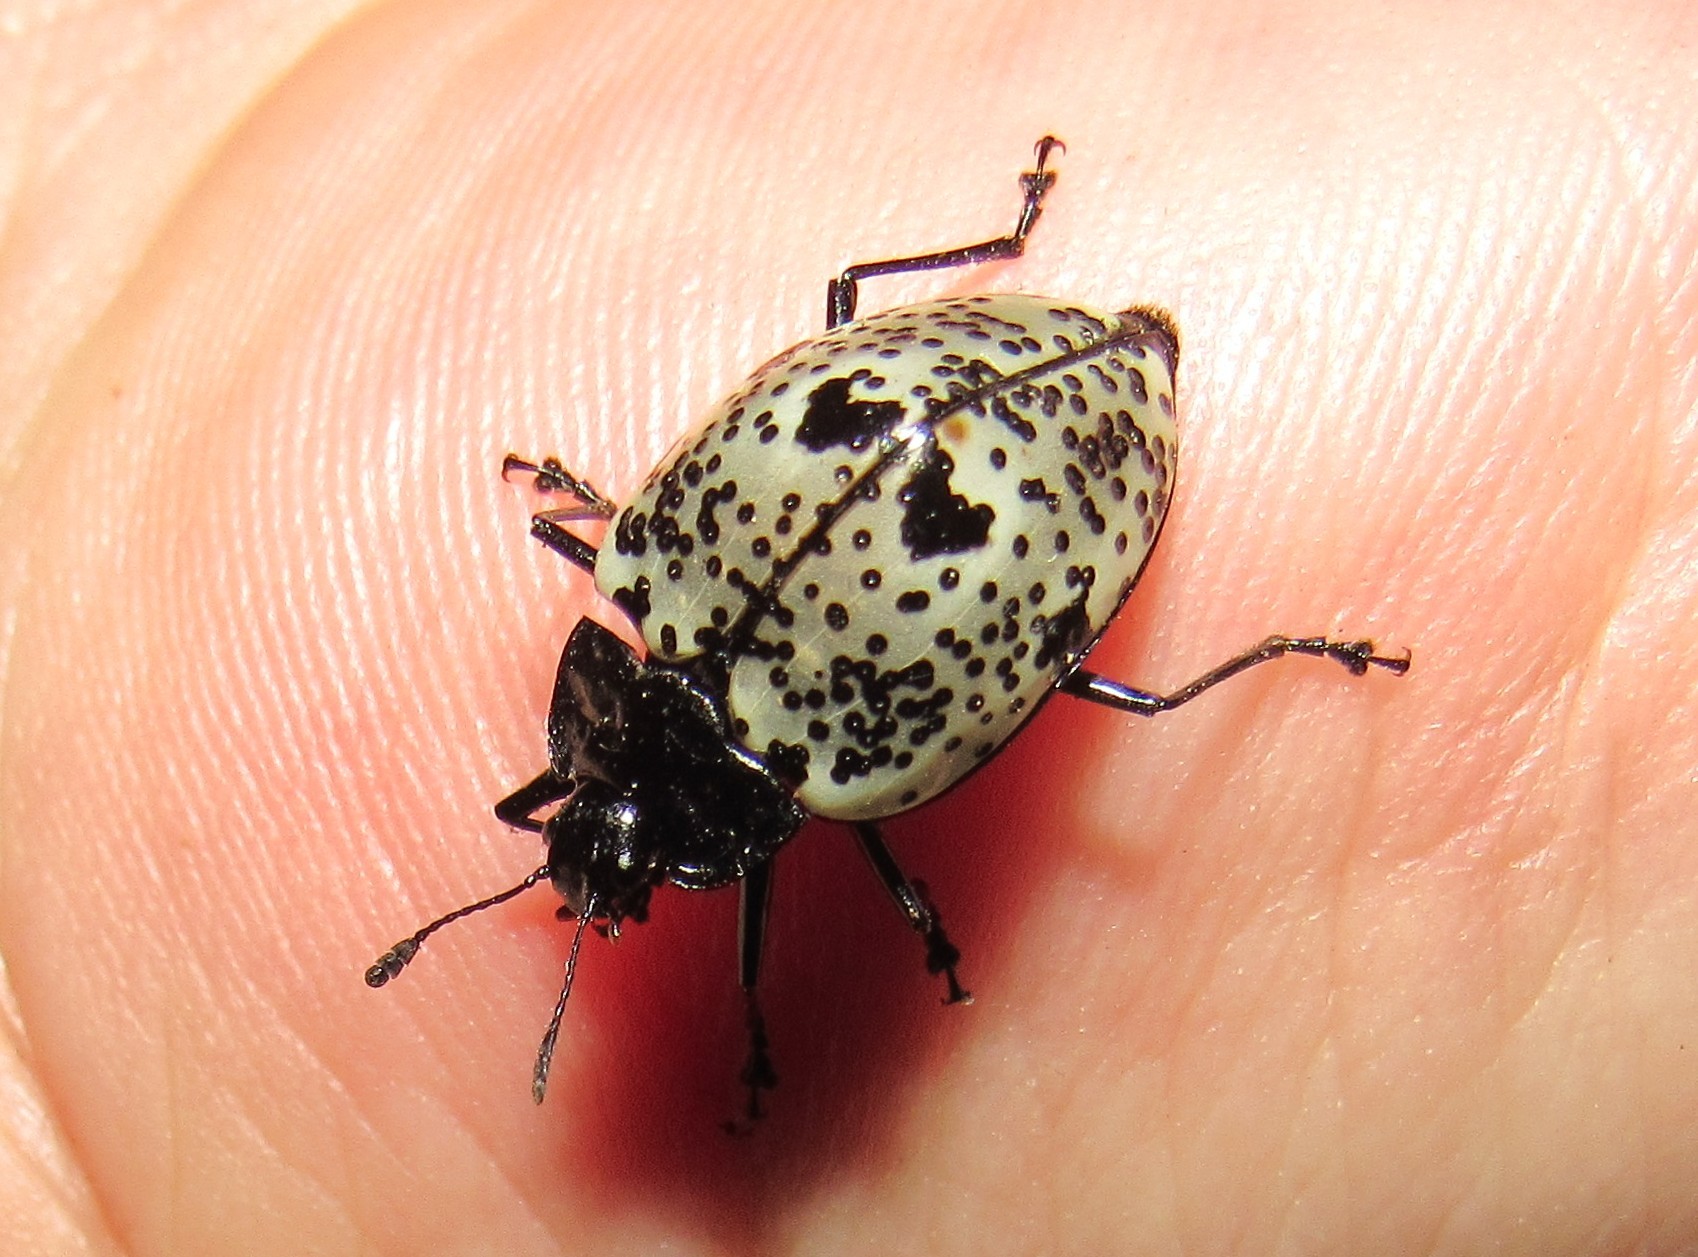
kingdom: Animalia
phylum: Arthropoda
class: Insecta
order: Coleoptera
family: Erotylidae
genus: Gibbifer
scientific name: Gibbifer
